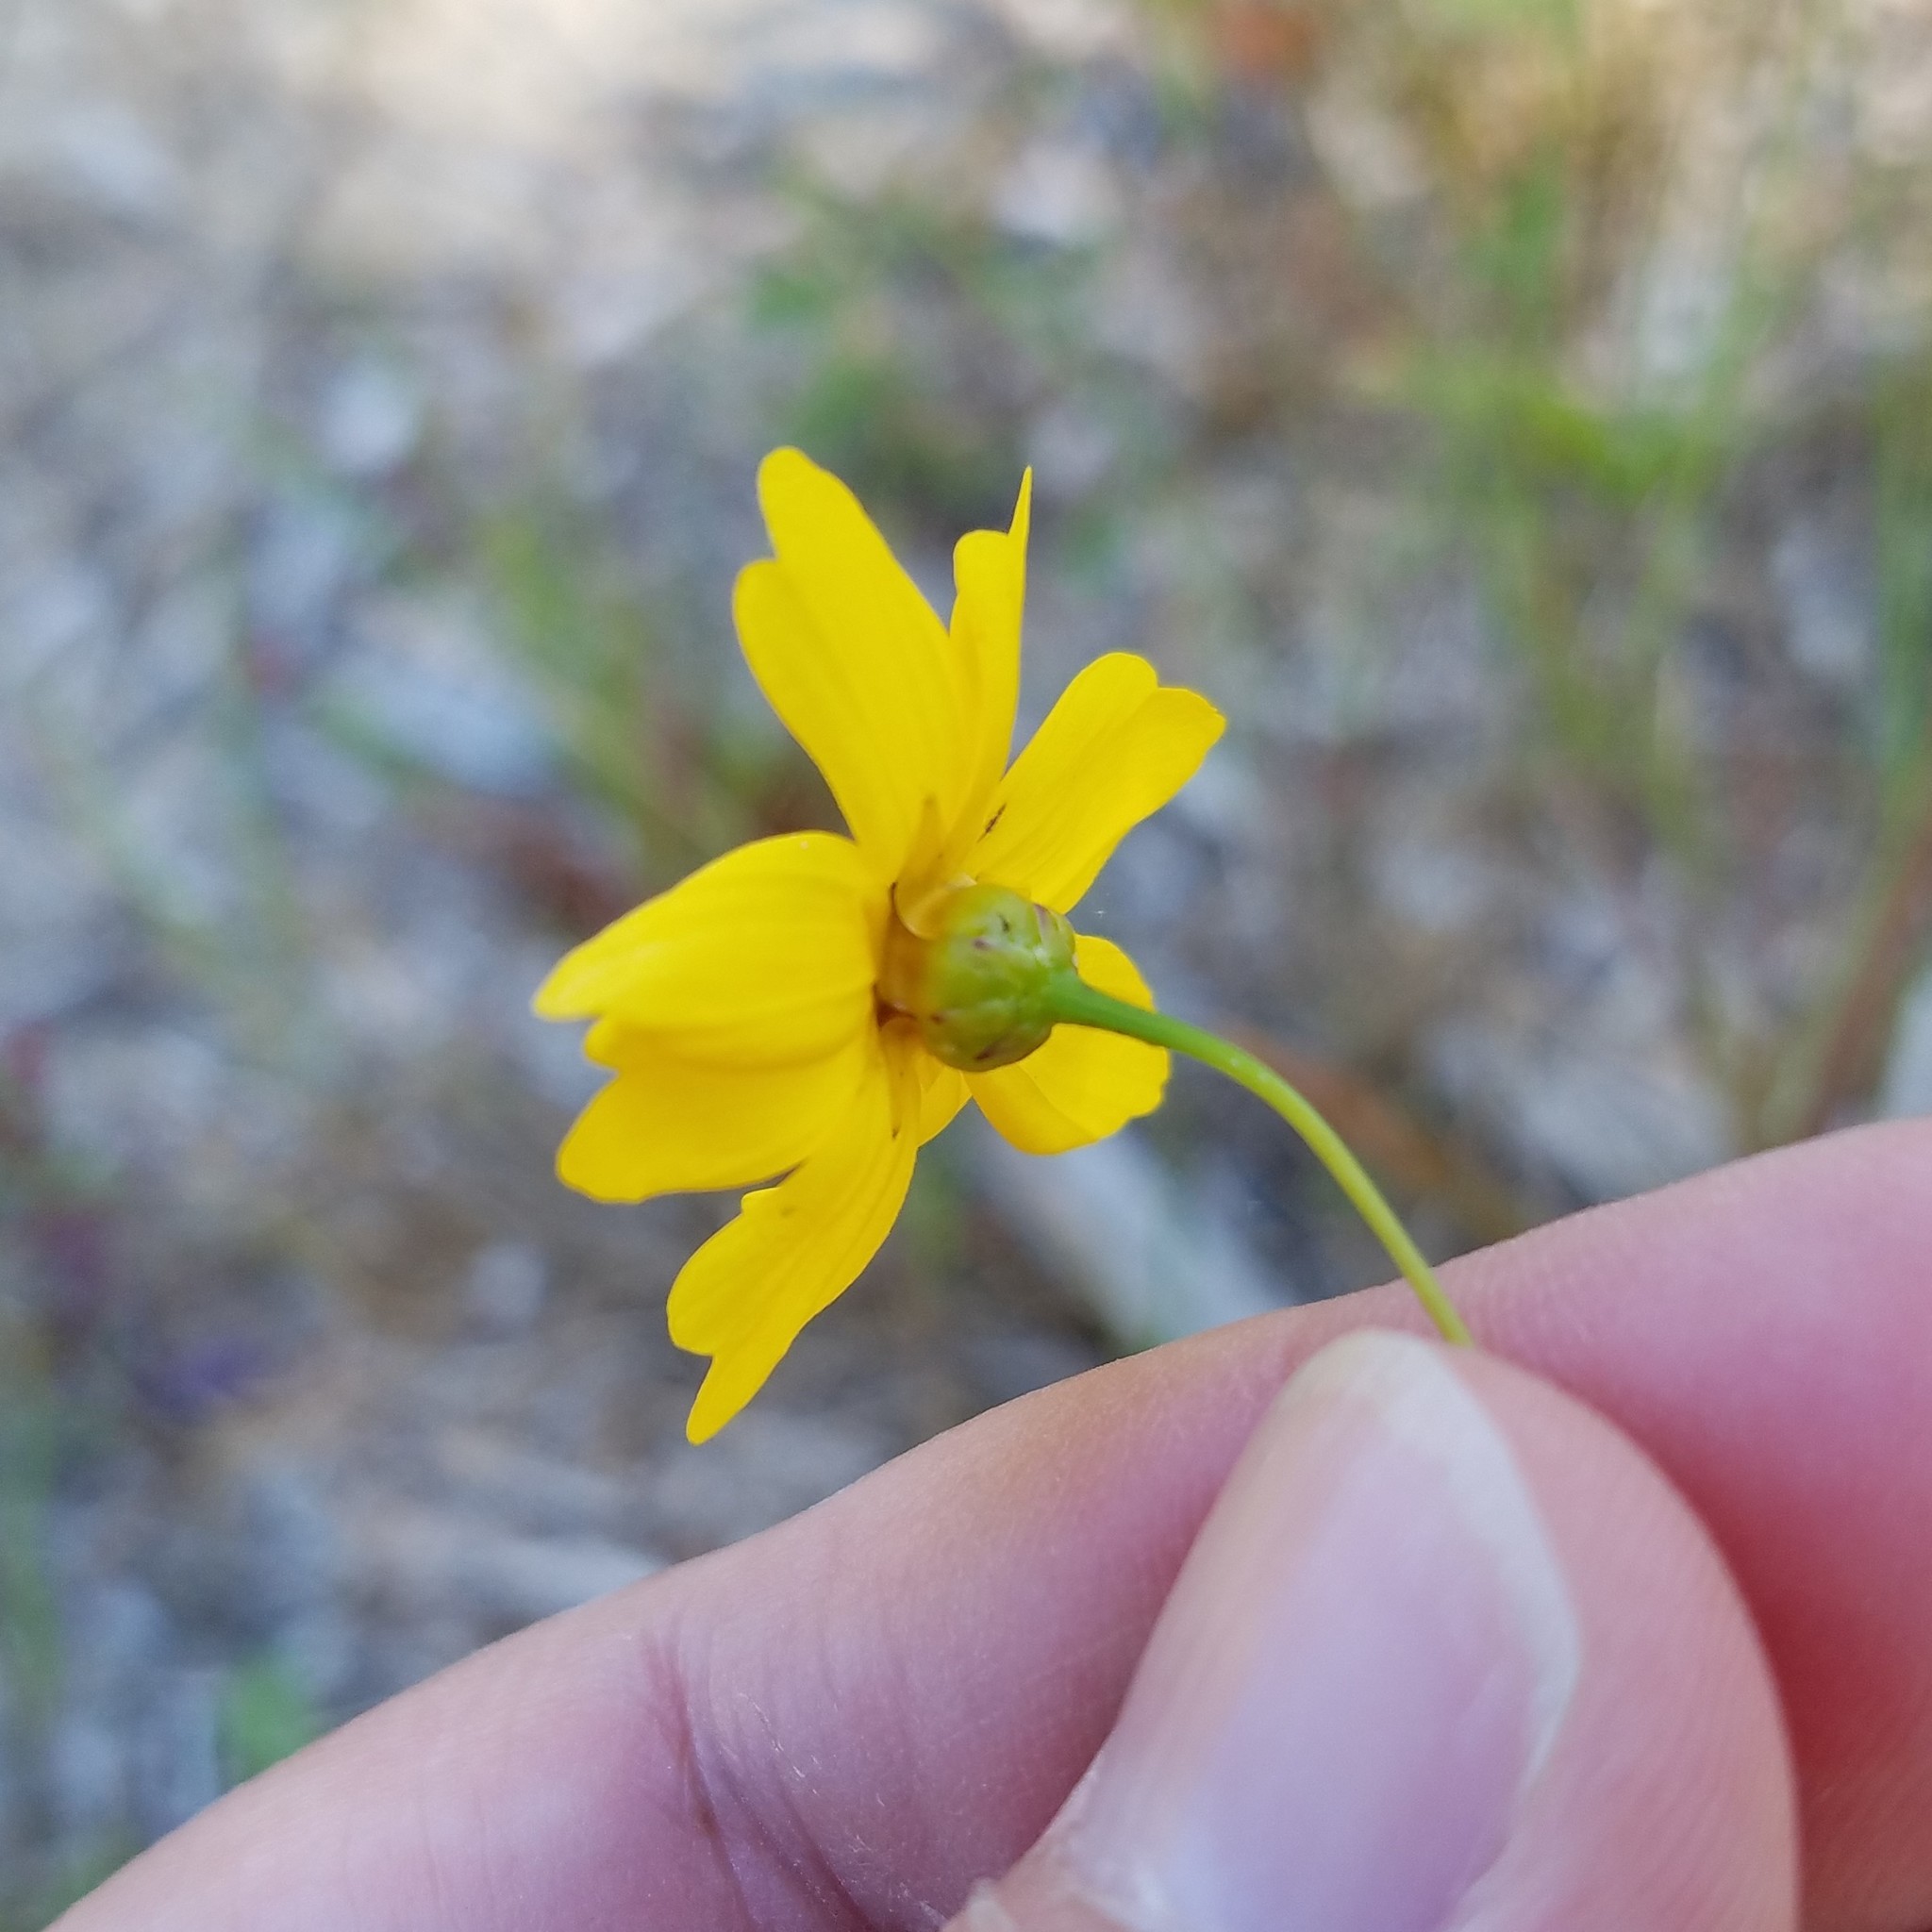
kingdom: Plantae
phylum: Tracheophyta
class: Magnoliopsida
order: Asterales
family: Asteraceae
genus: Coreopsis
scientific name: Coreopsis leavenworthii
